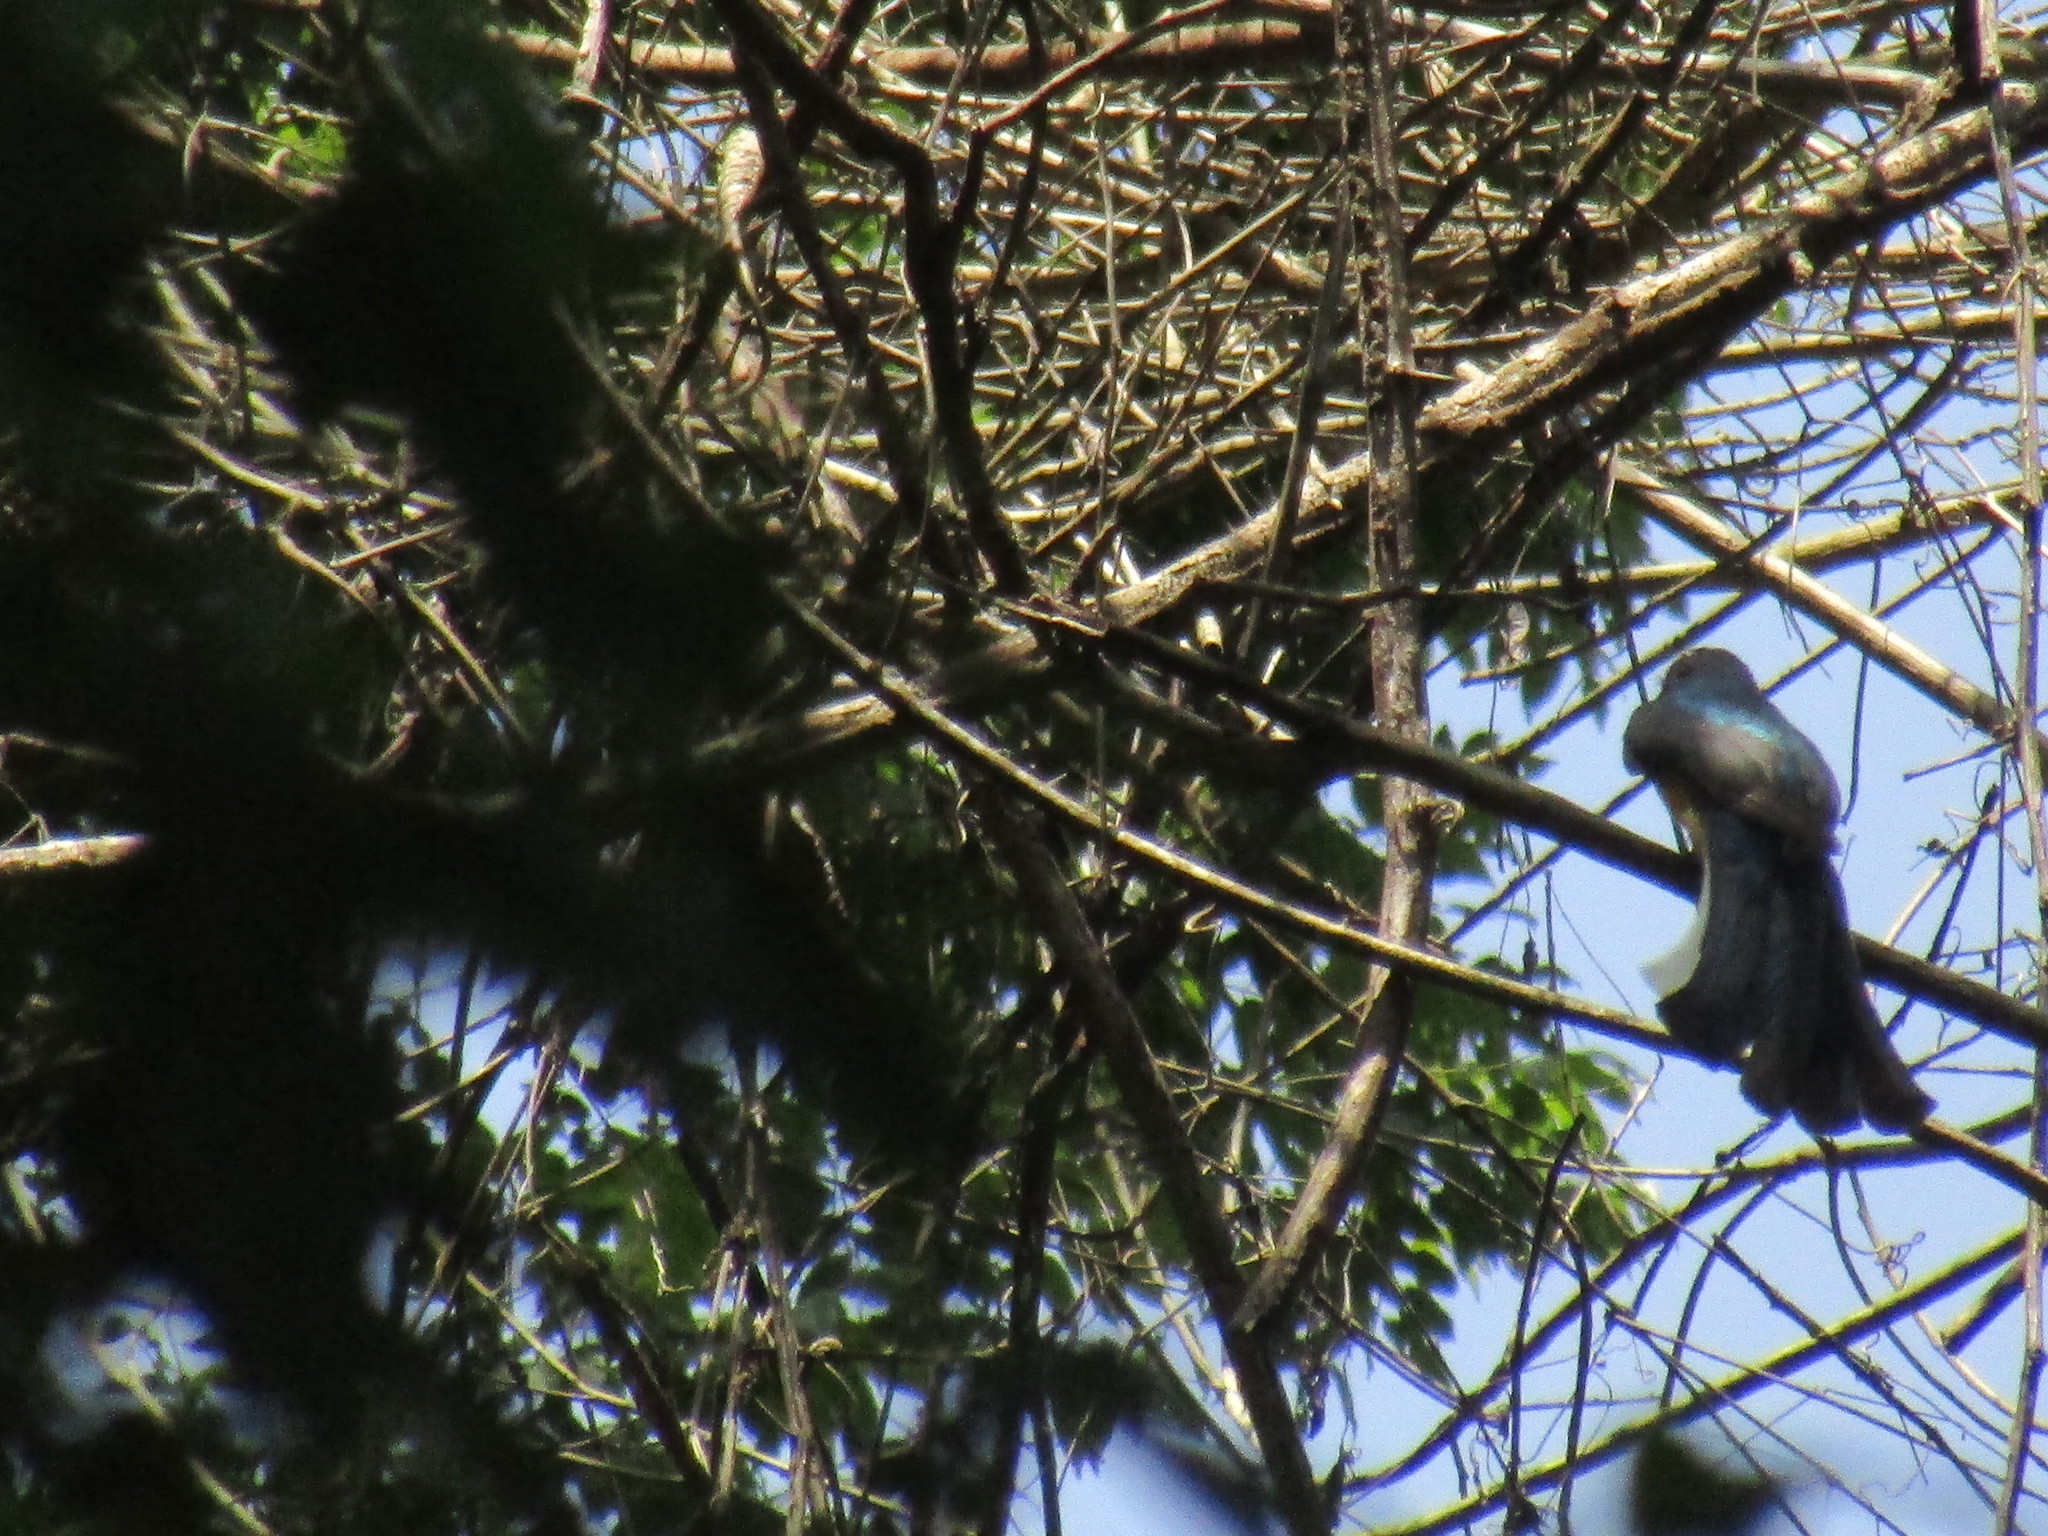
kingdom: Animalia
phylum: Chordata
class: Aves
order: Trogoniformes
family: Trogonidae
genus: Trogon
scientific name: Trogon citreolus
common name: Citreoline trogon
